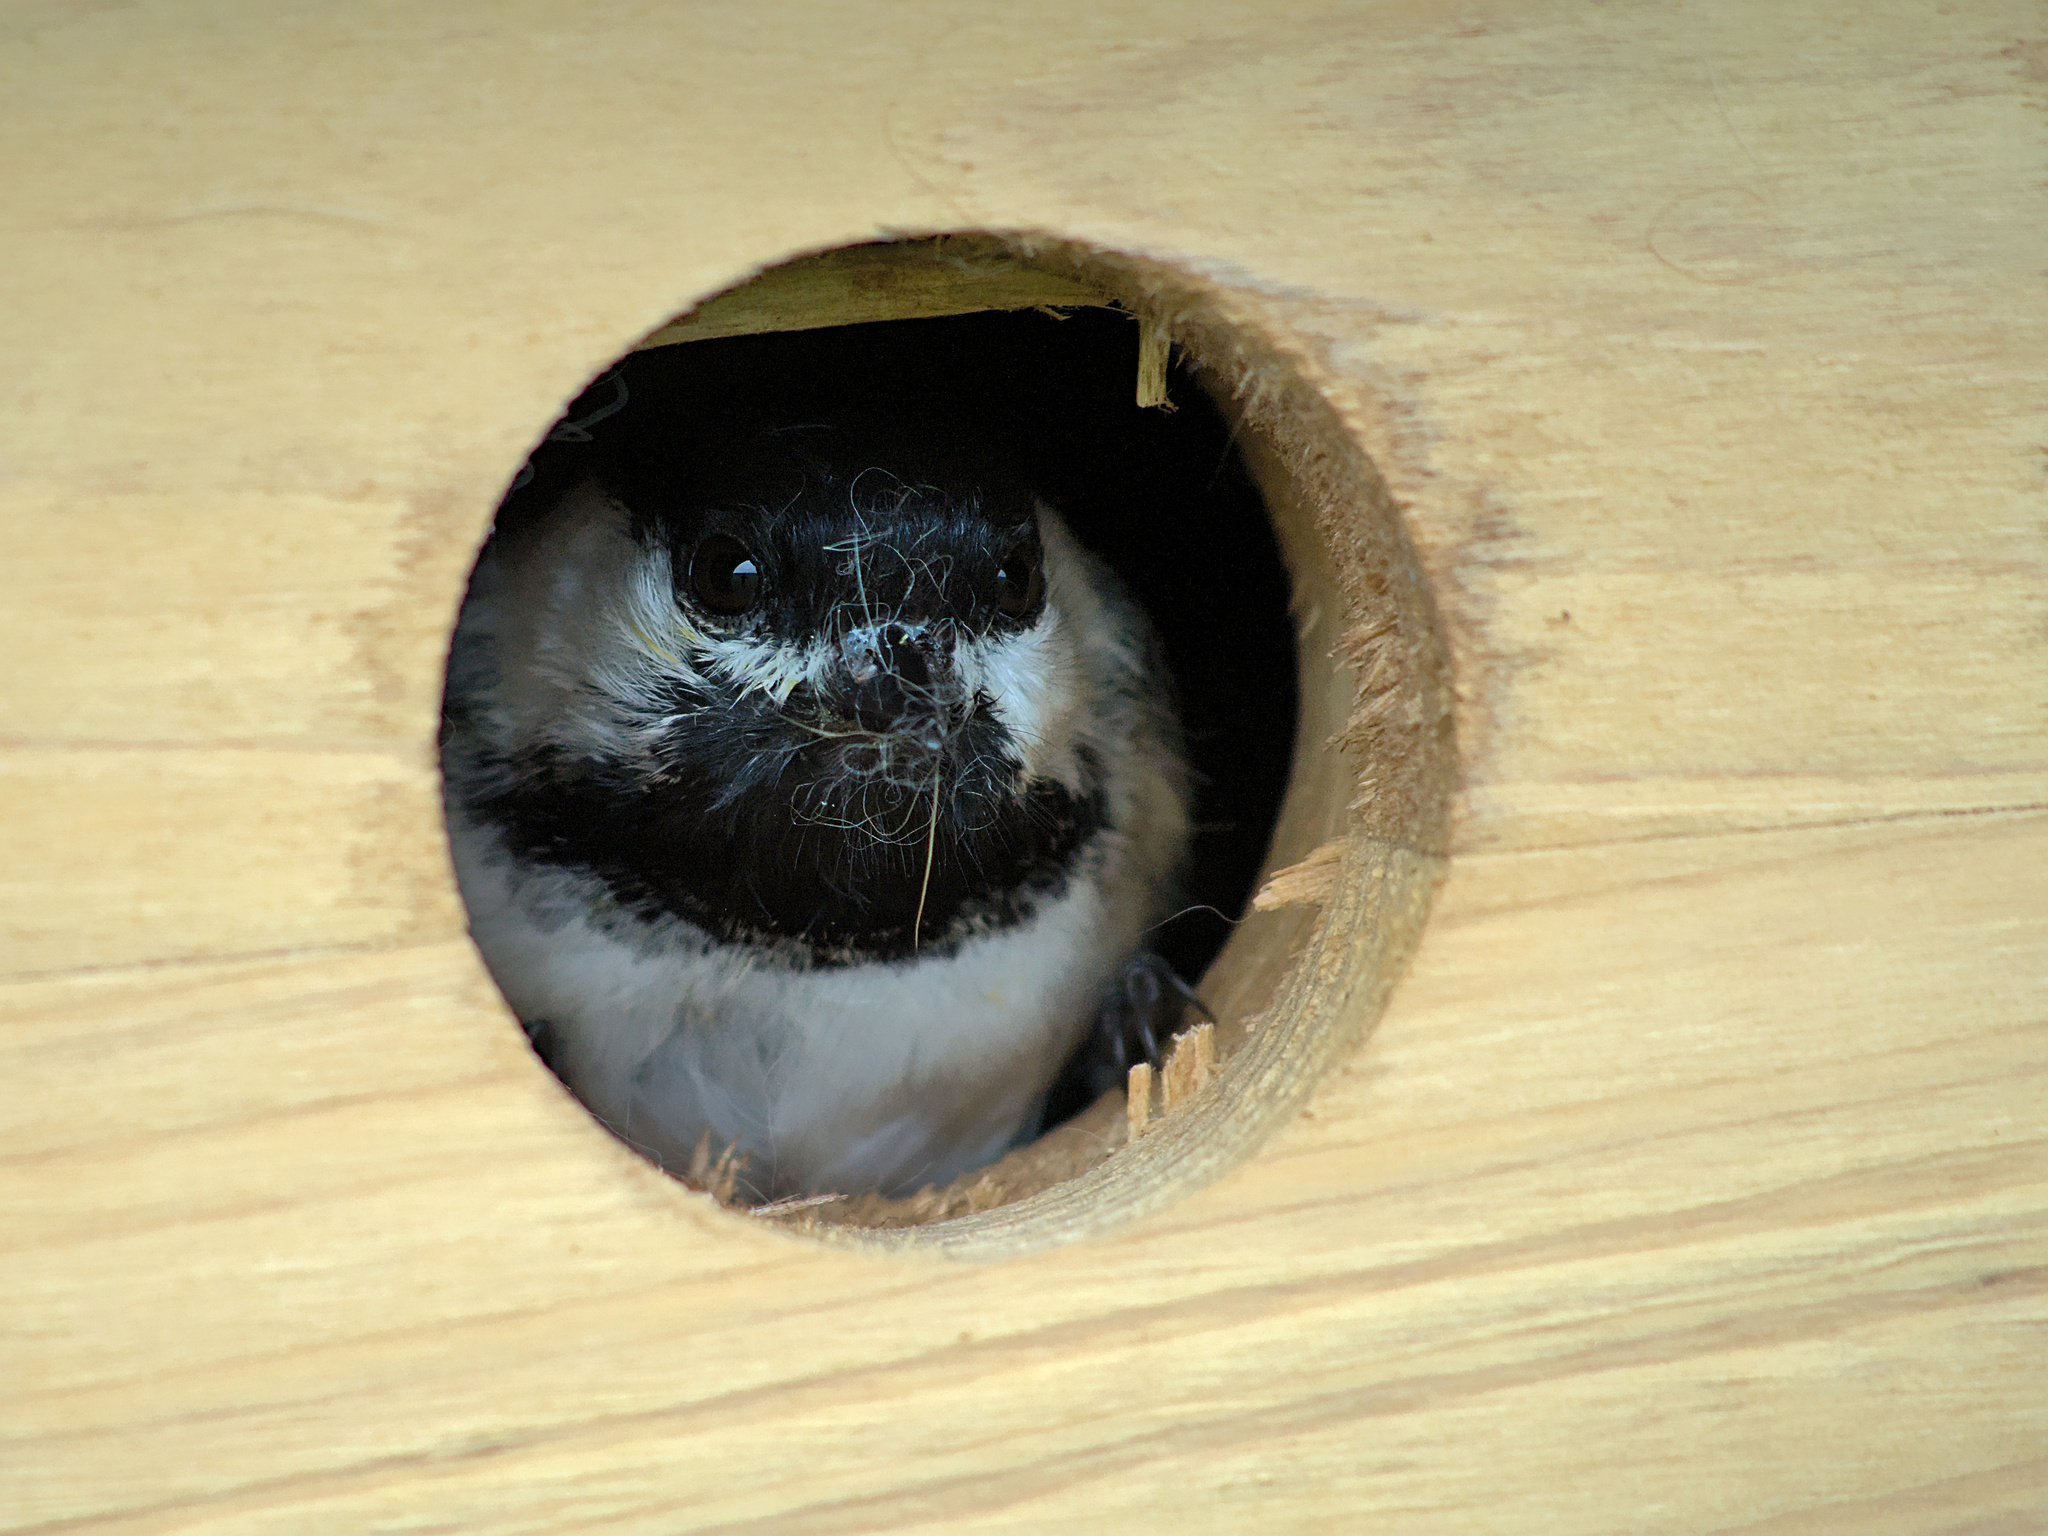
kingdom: Animalia
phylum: Chordata
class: Aves
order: Passeriformes
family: Paridae
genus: Poecile
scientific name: Poecile atricapillus
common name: Black-capped chickadee
